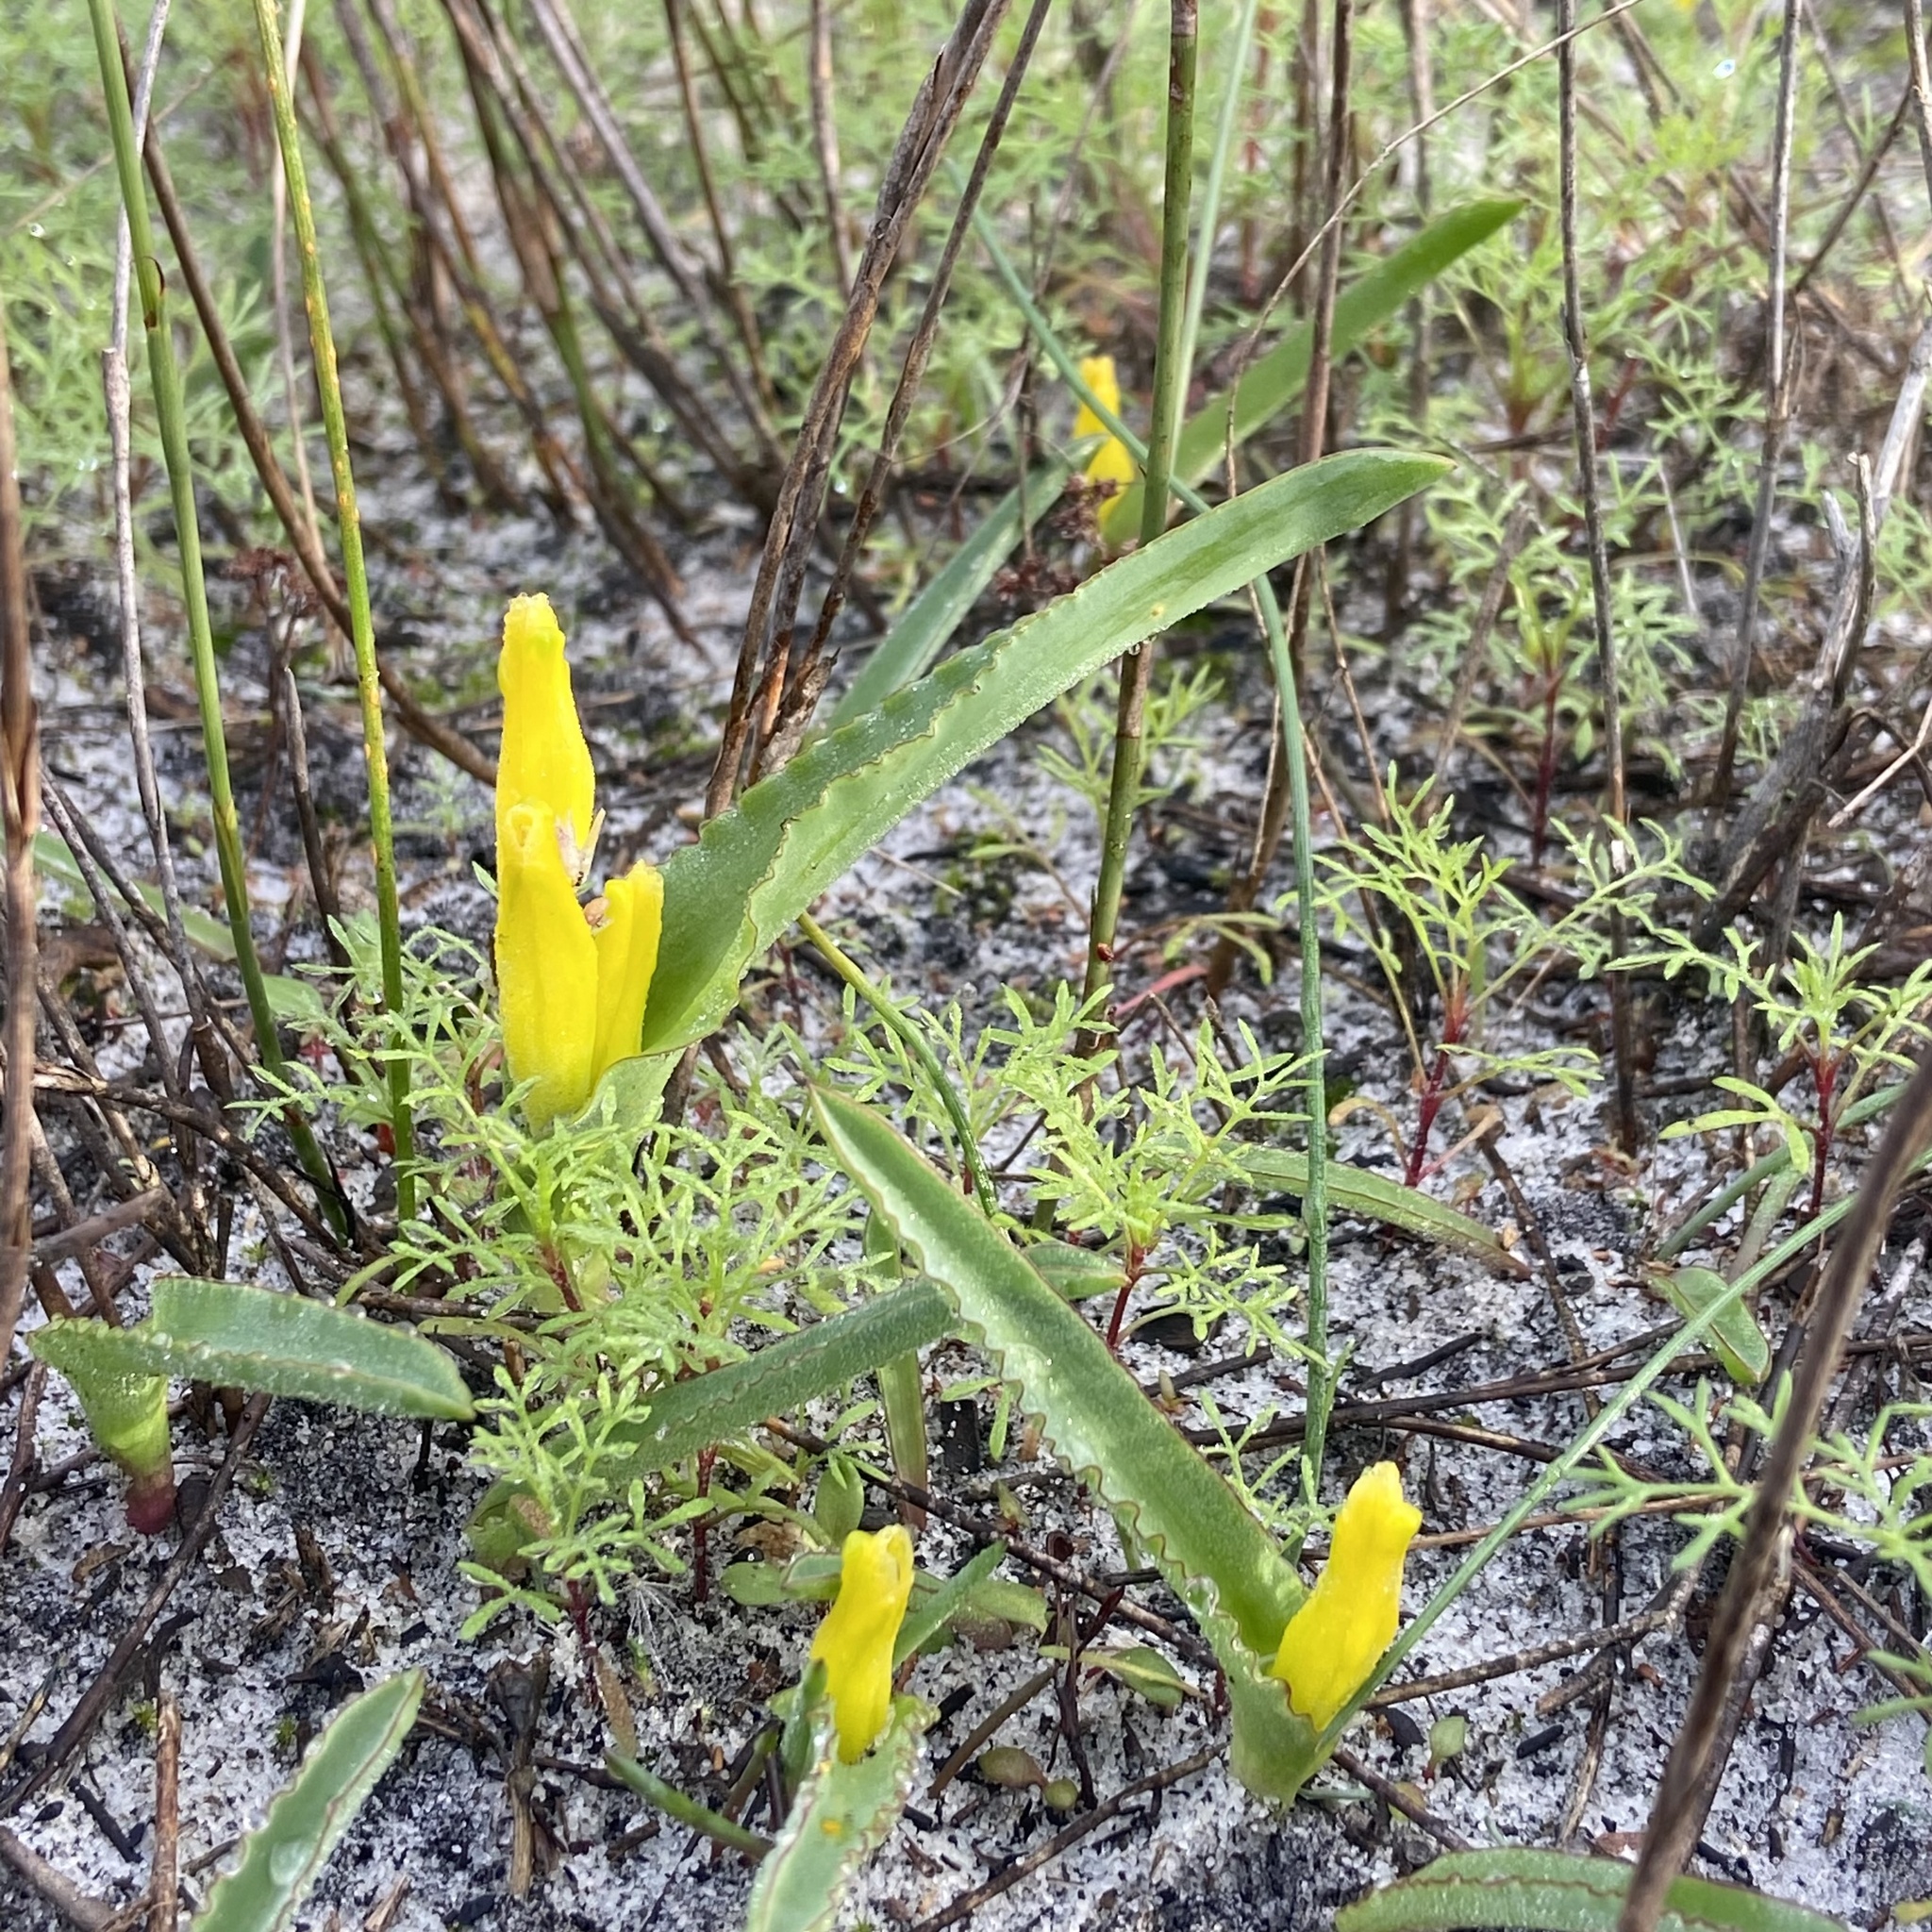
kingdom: Plantae
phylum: Tracheophyta
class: Liliopsida
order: Asparagales
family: Asparagaceae
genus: Lachenalia
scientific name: Lachenalia reflexa
